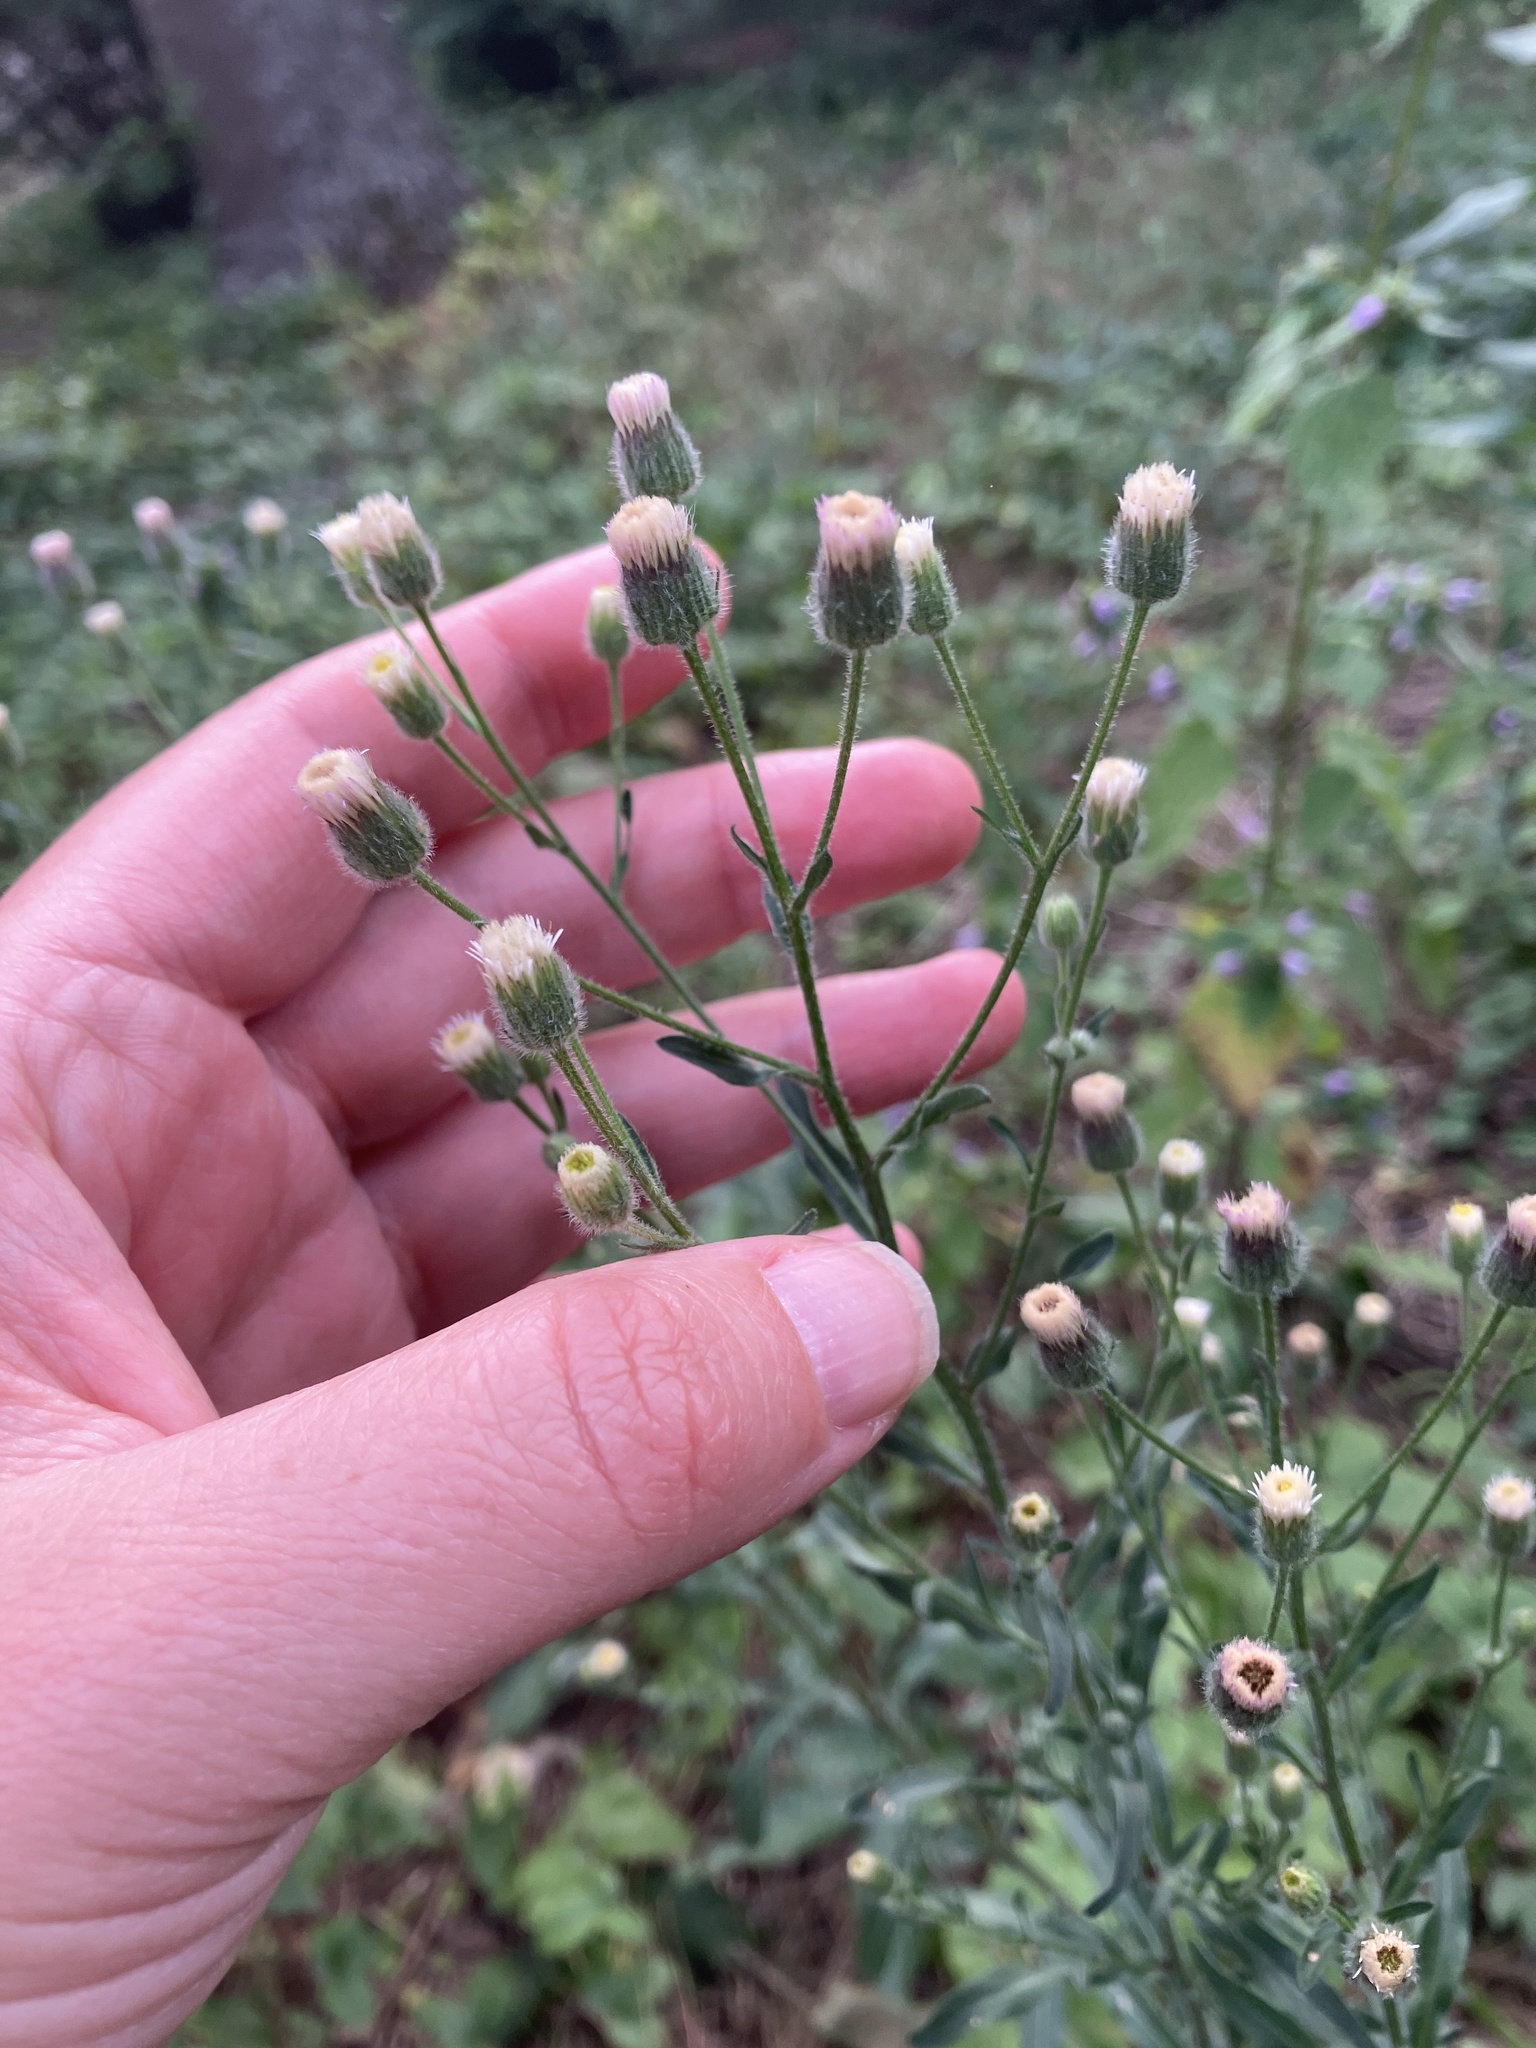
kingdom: Plantae
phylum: Tracheophyta
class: Magnoliopsida
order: Asterales
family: Asteraceae
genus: Erigeron
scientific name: Erigeron acris
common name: Blue fleabane
